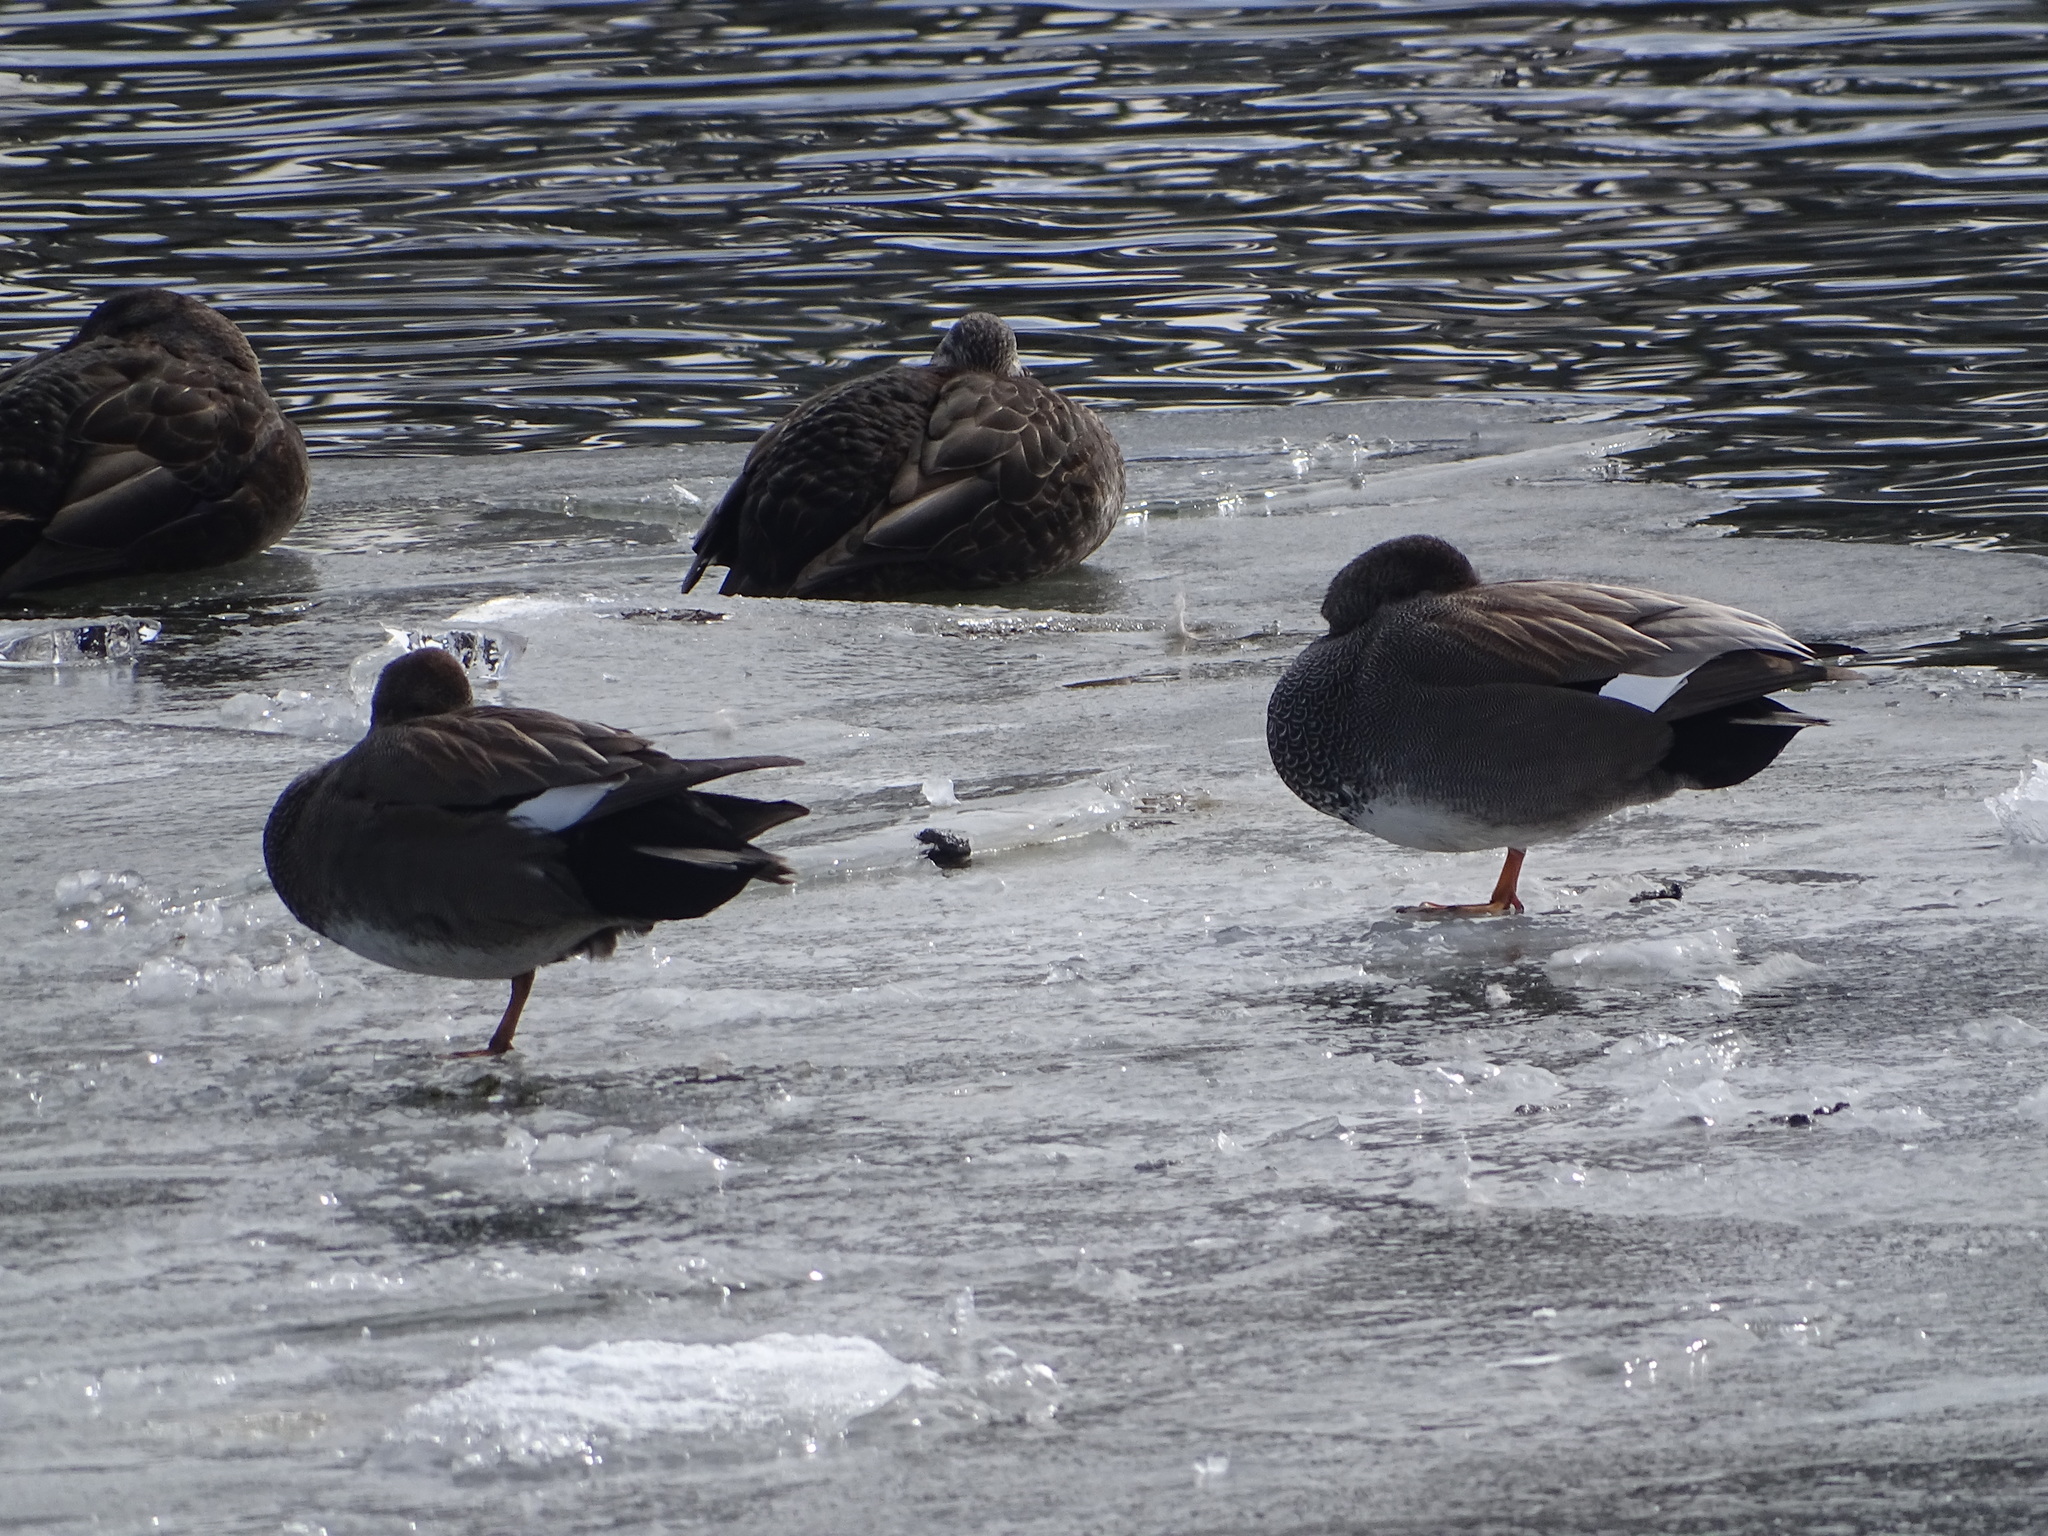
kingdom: Animalia
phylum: Chordata
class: Aves
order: Anseriformes
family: Anatidae
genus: Mareca
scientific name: Mareca strepera
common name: Gadwall
